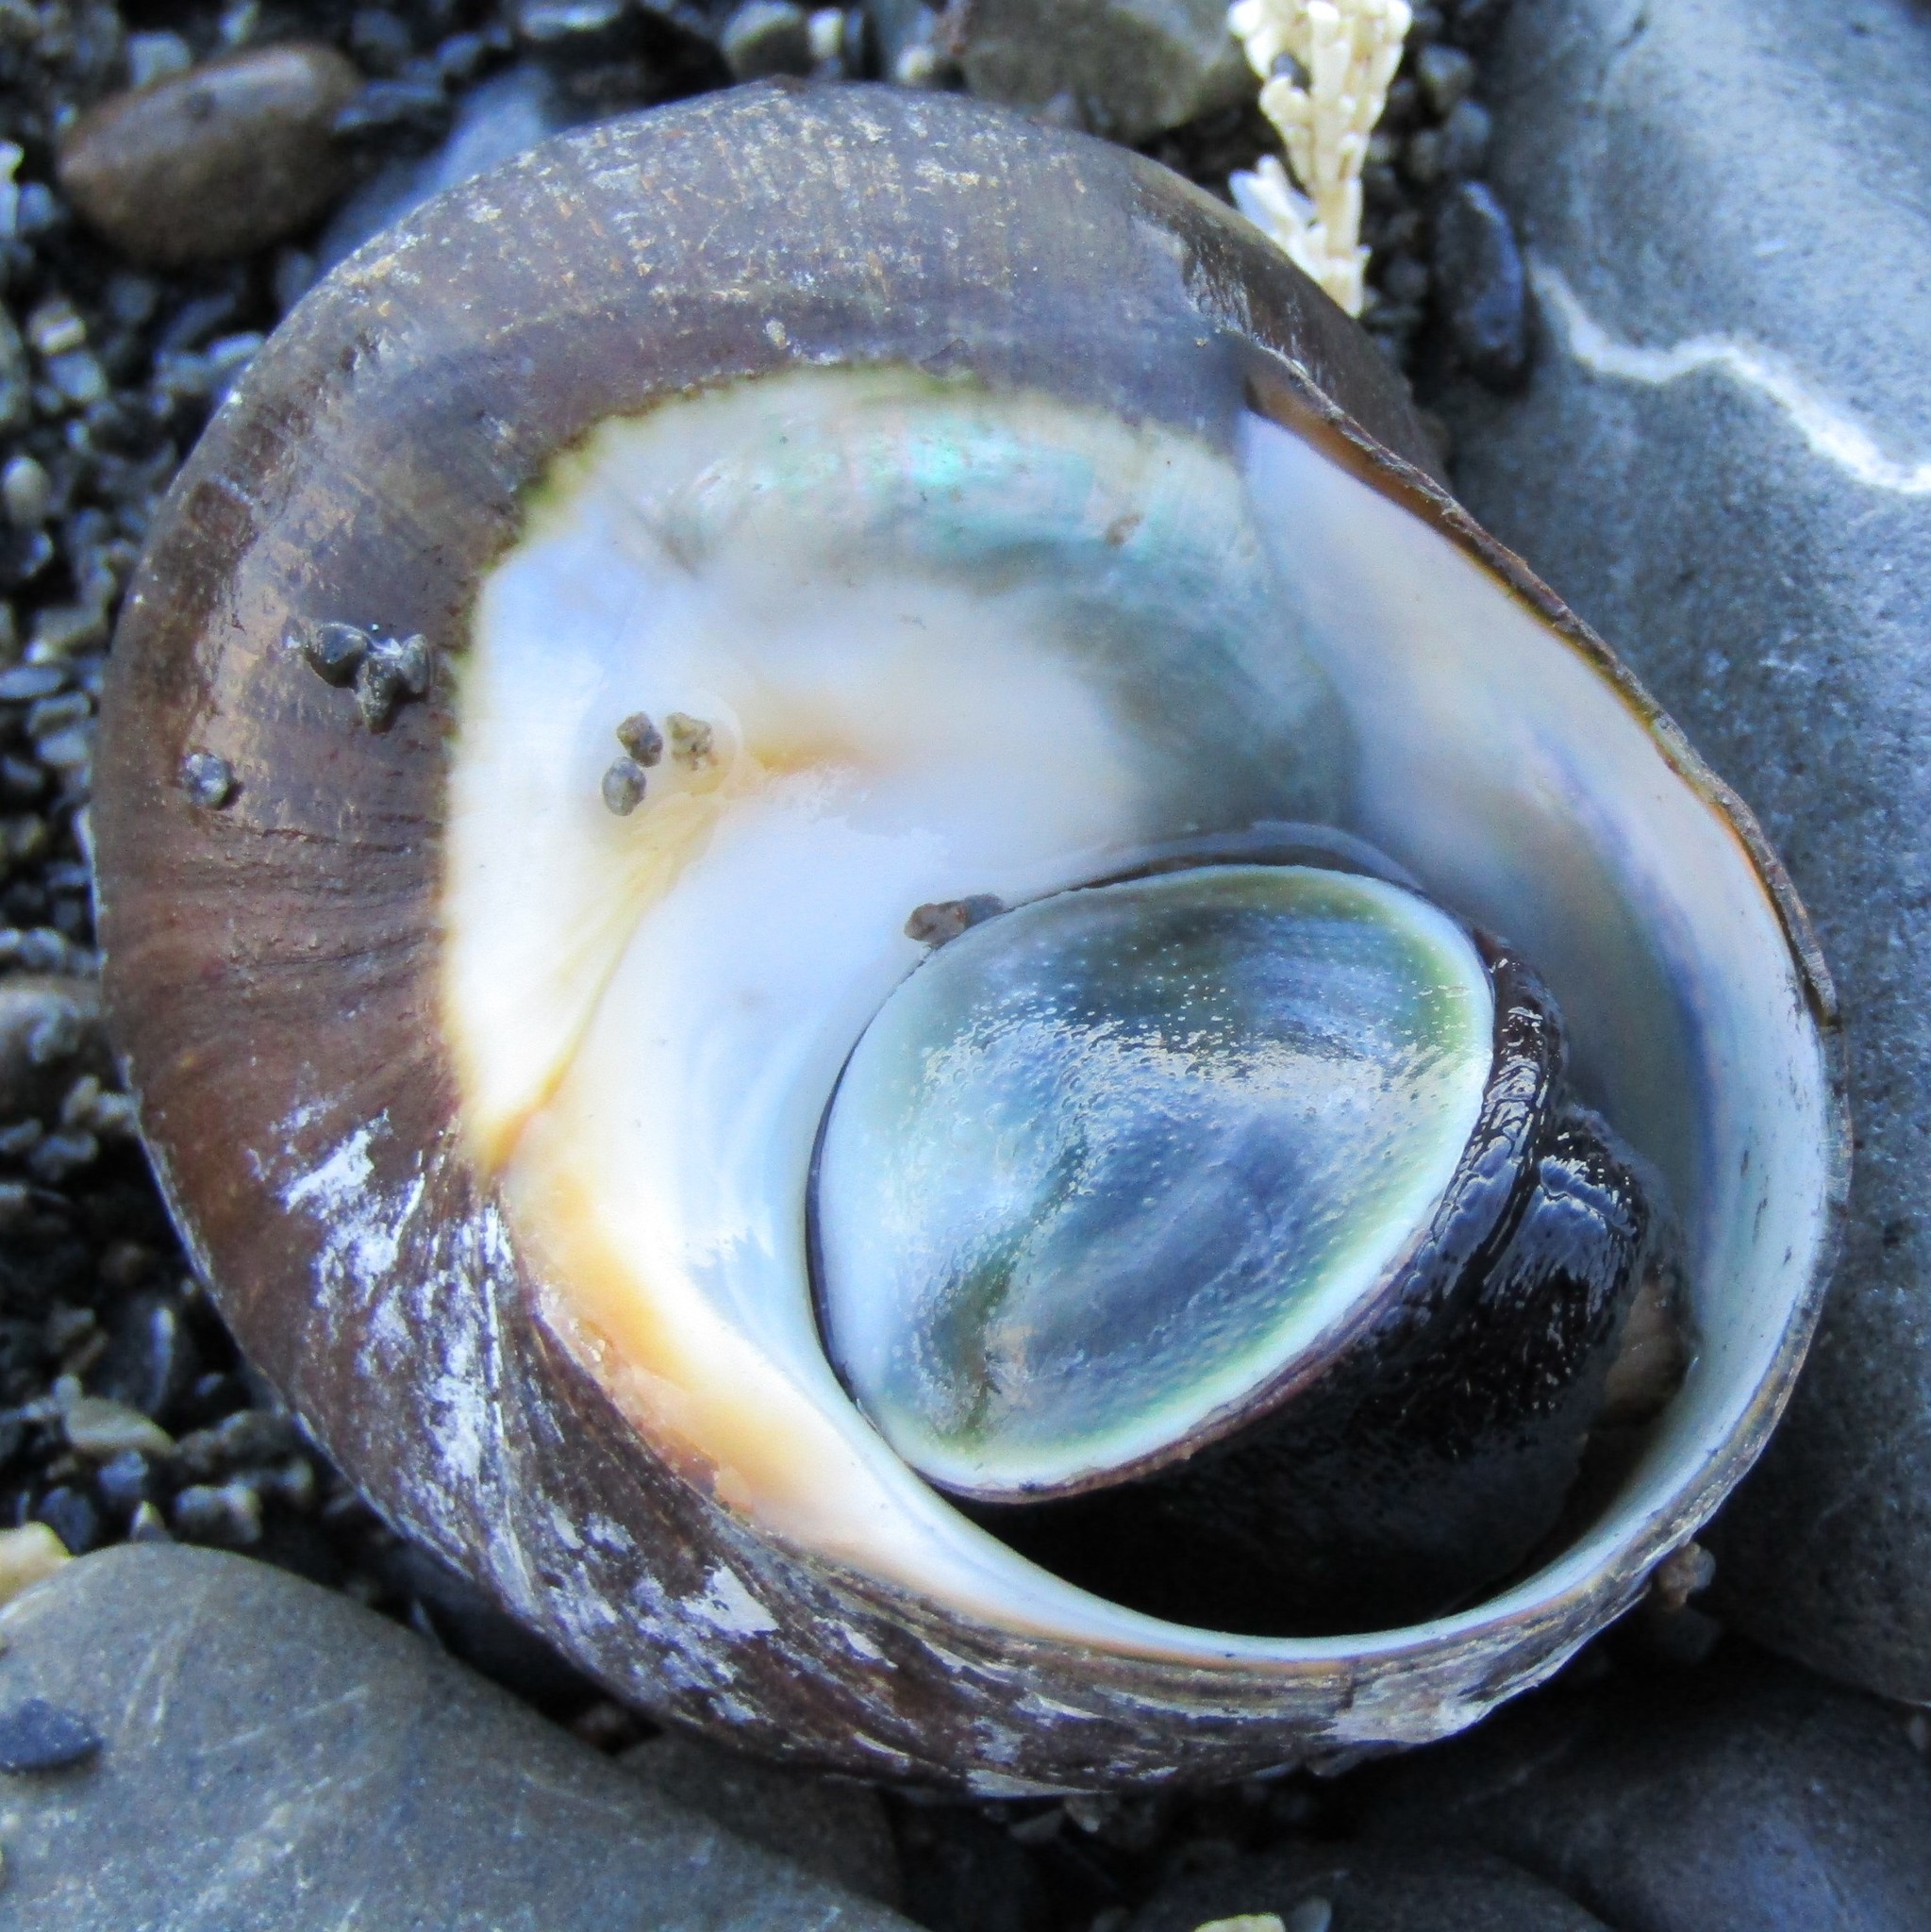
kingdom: Animalia
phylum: Mollusca
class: Gastropoda
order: Trochida
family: Turbinidae
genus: Lunella
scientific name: Lunella smaragda
